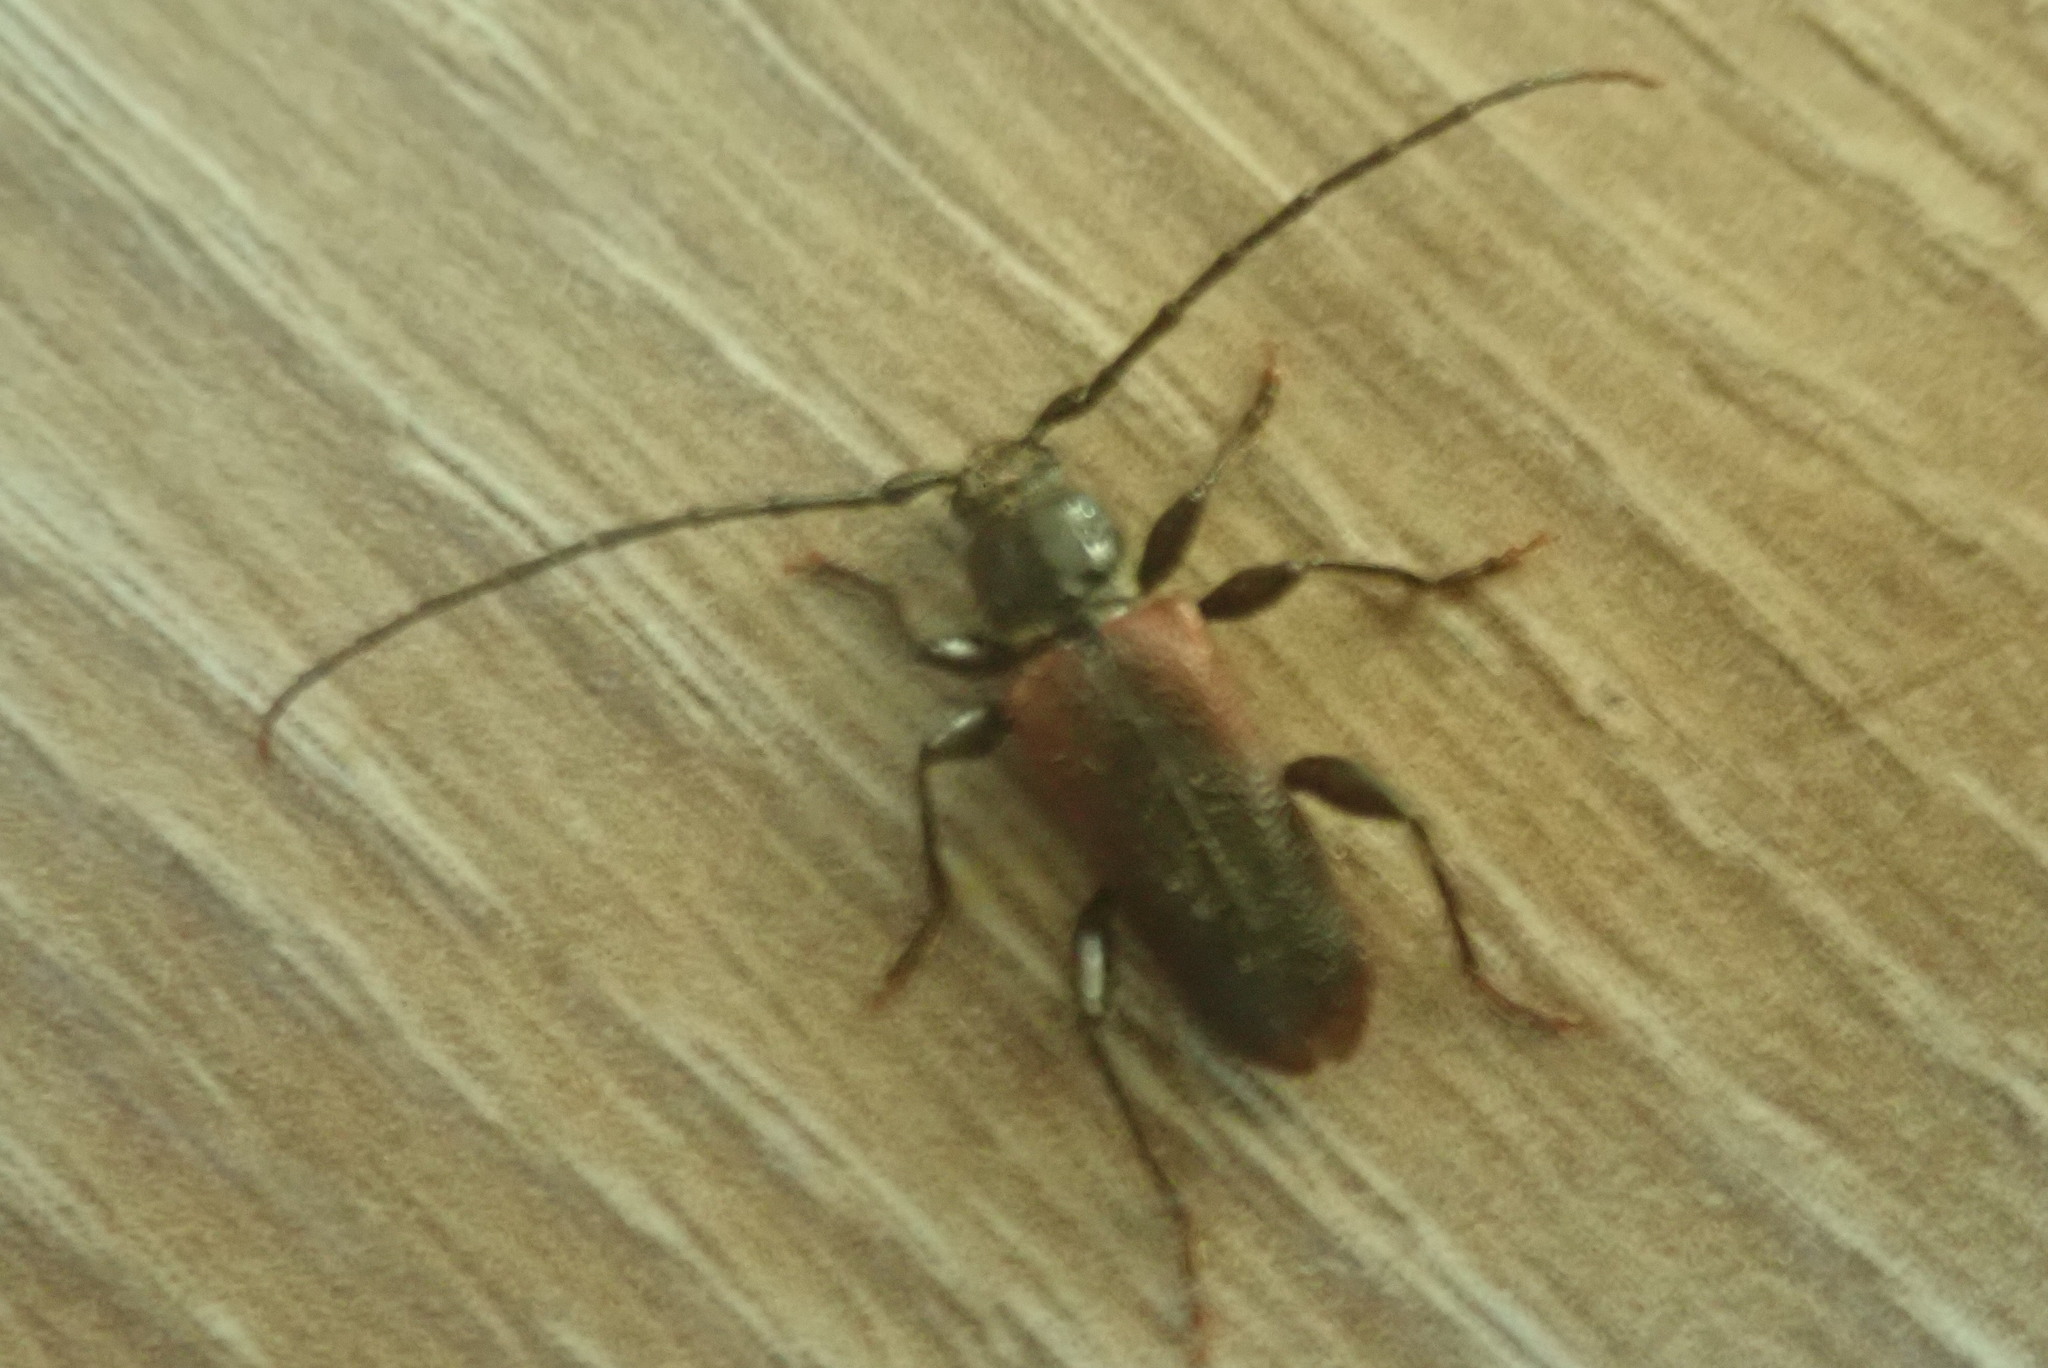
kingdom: Animalia
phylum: Arthropoda
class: Insecta
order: Coleoptera
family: Cerambycidae
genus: Callidiellum
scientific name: Callidiellum rufipennis
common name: Longhorn beetle
